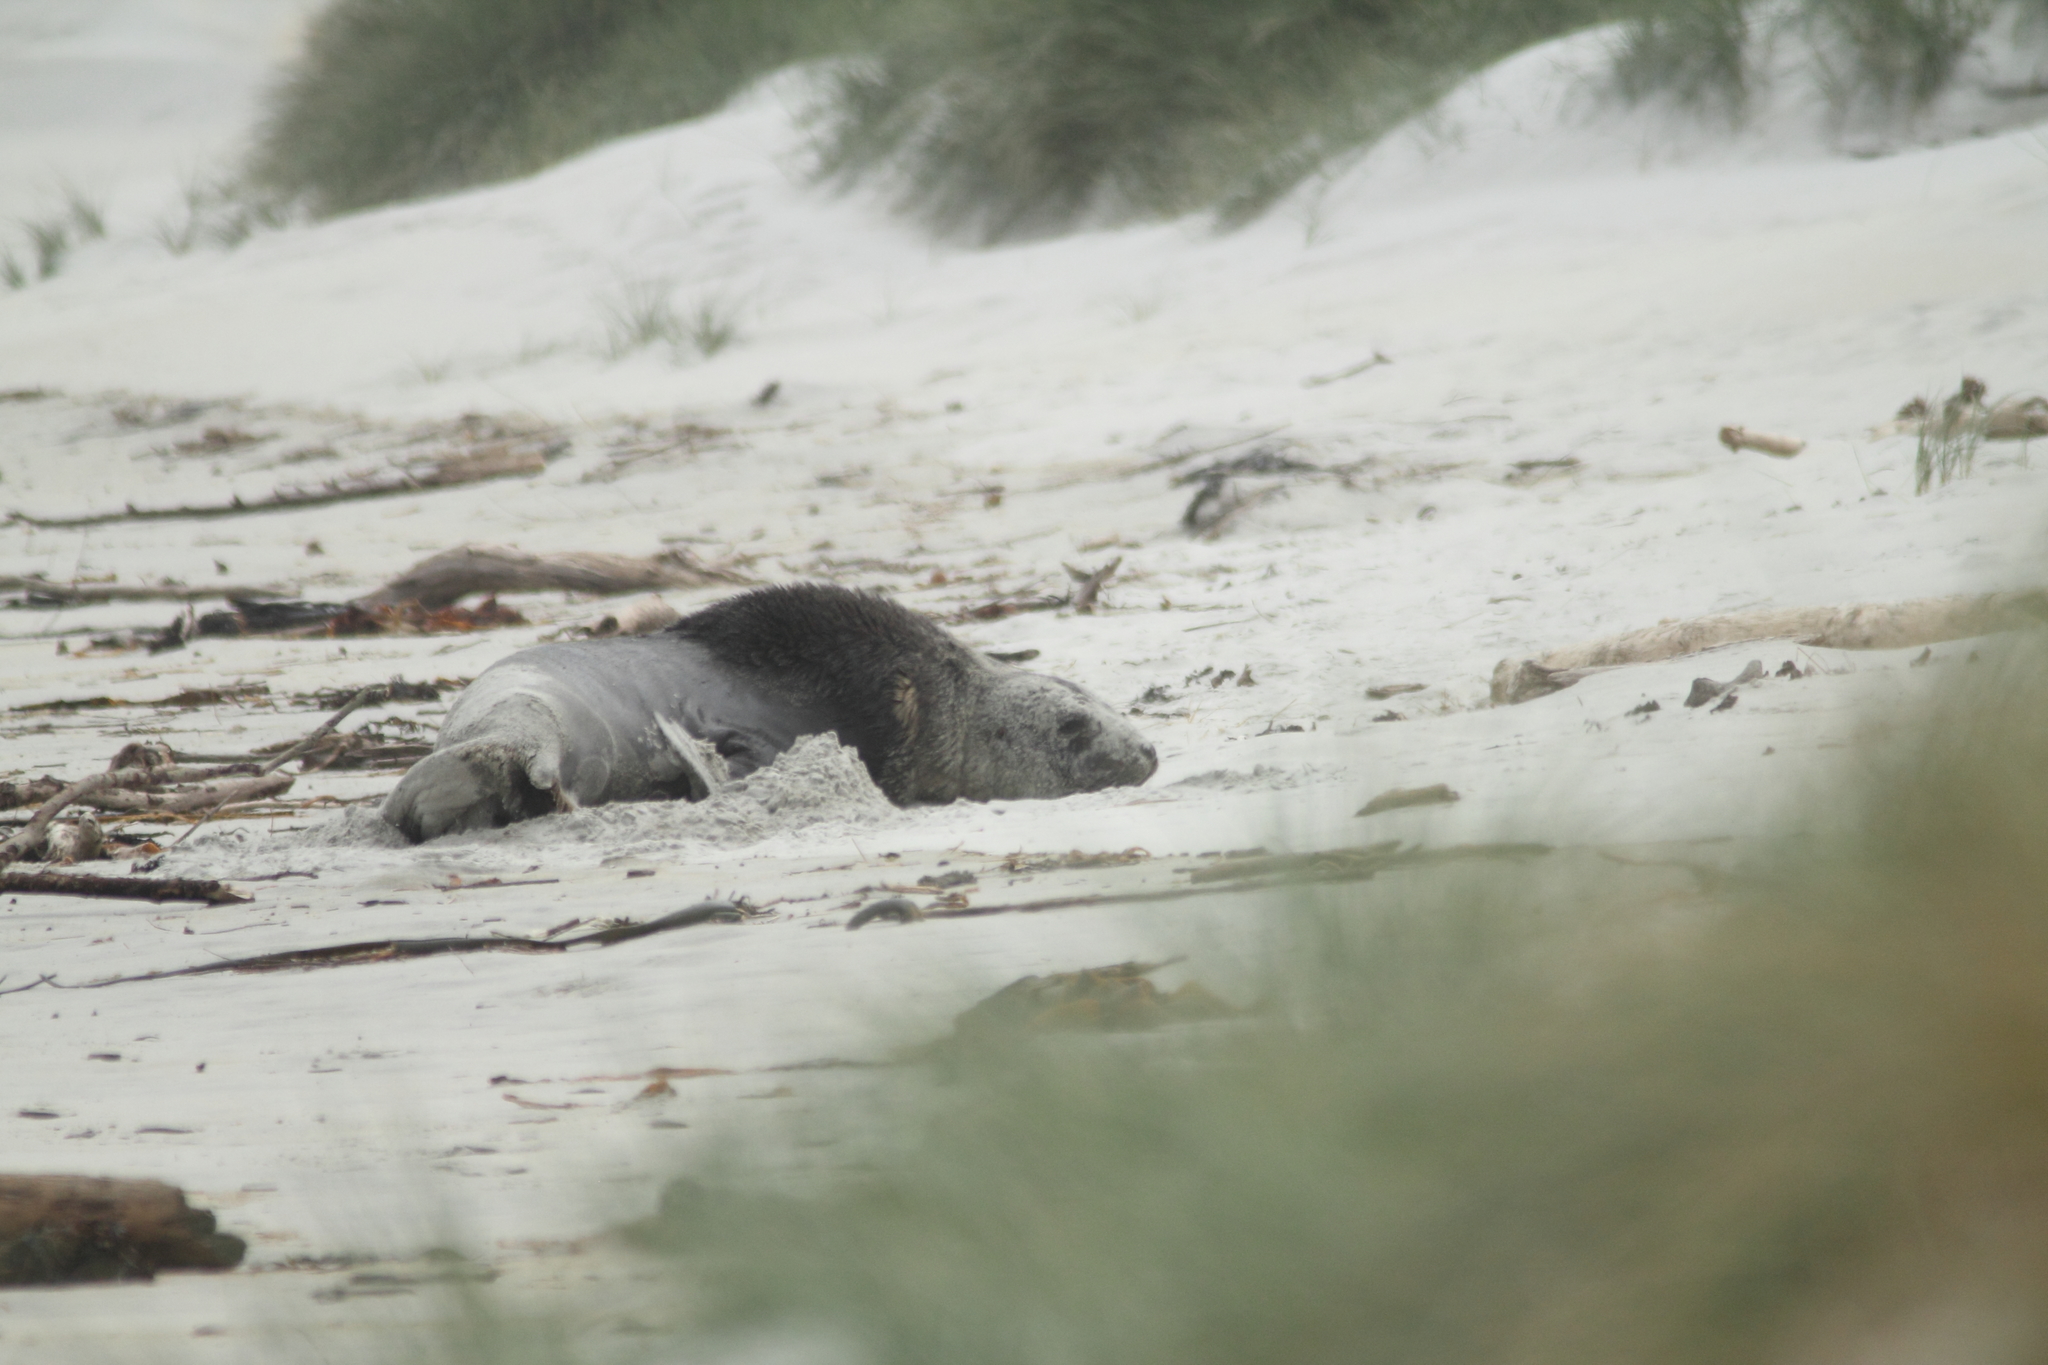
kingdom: Animalia
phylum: Chordata
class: Mammalia
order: Carnivora
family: Otariidae
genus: Phocarctos
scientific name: Phocarctos hookeri
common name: New zealand sea lion
